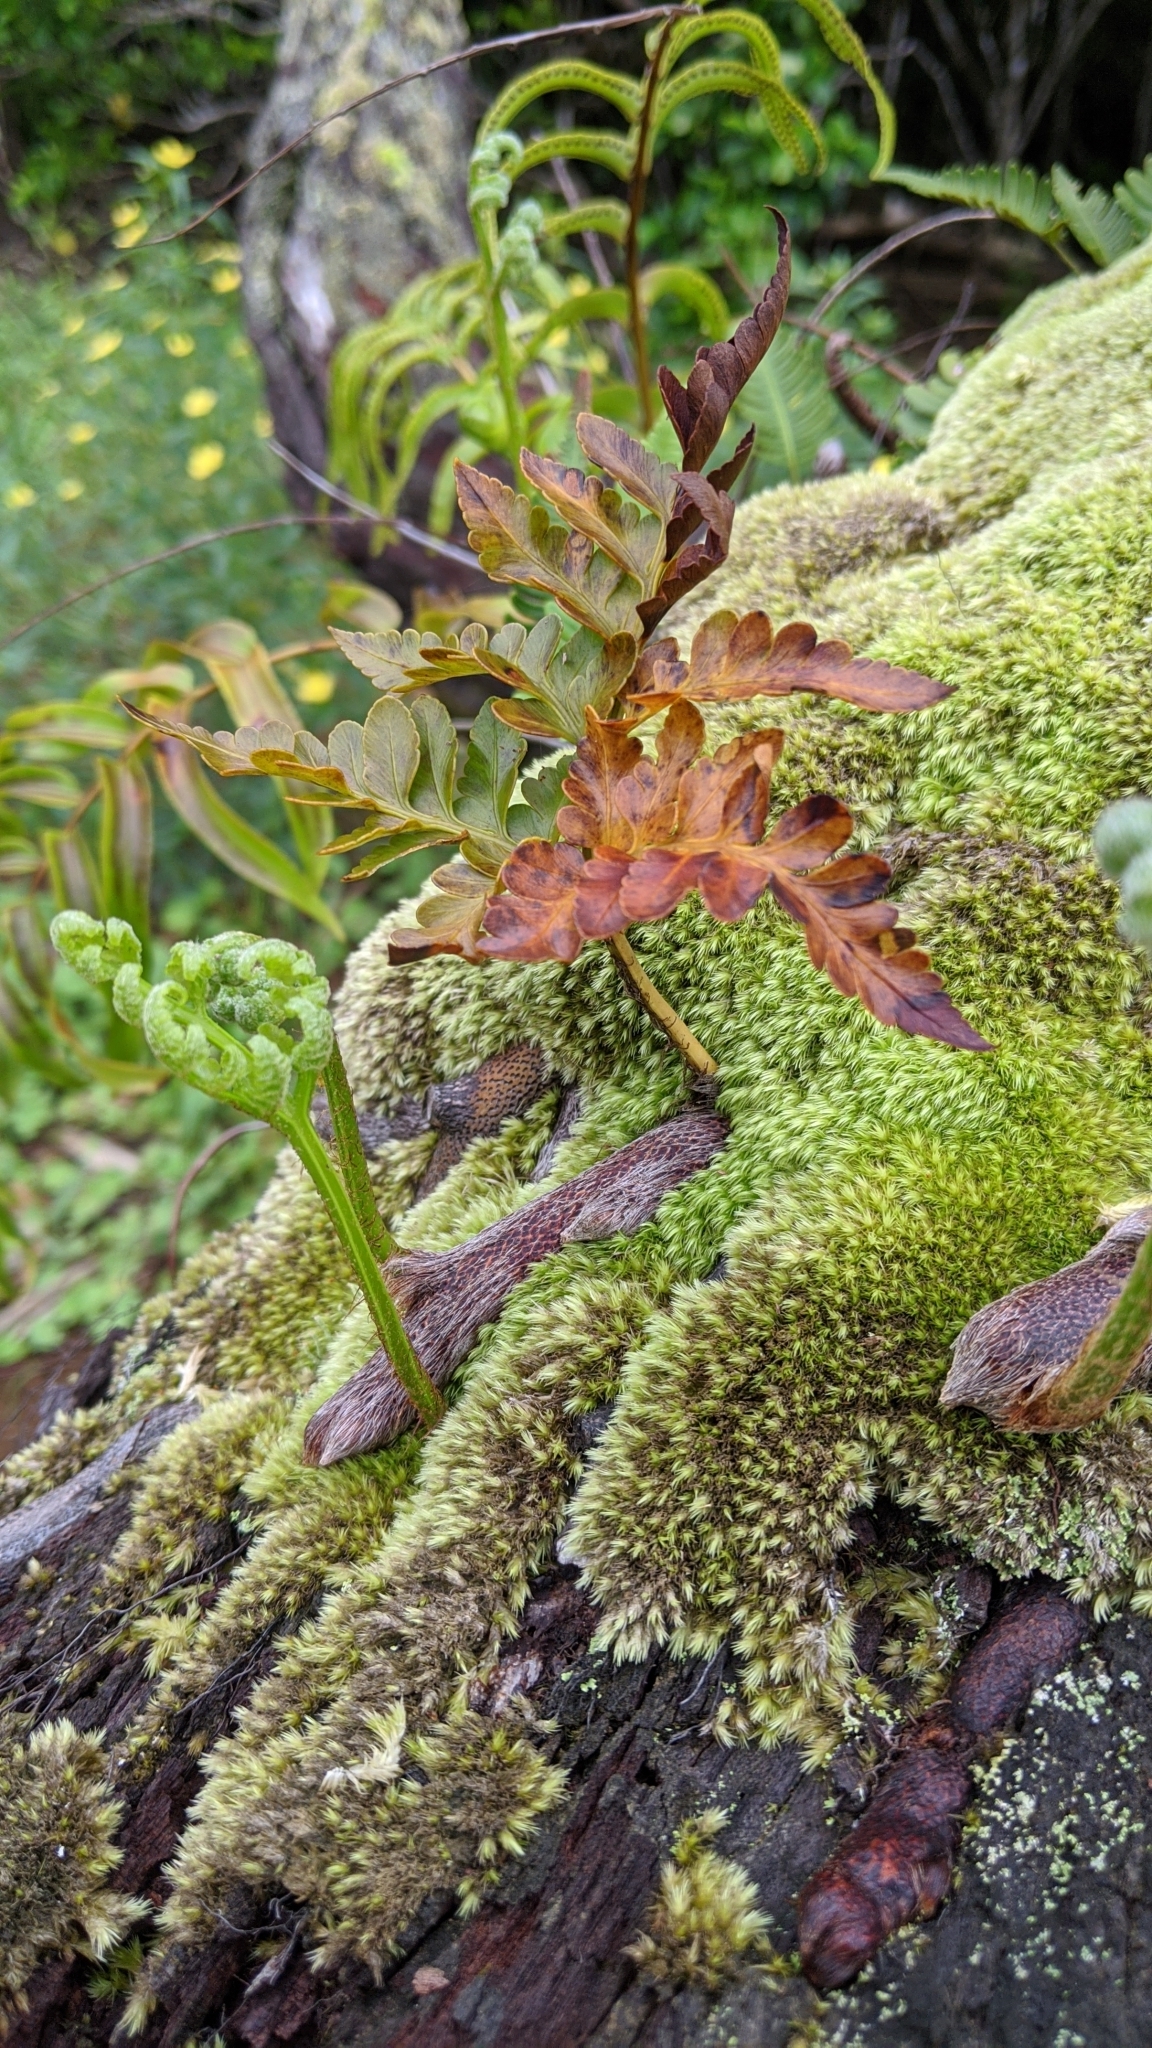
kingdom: Plantae
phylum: Tracheophyta
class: Polypodiopsida
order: Polypodiales
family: Davalliaceae
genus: Davallia
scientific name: Davallia solida
